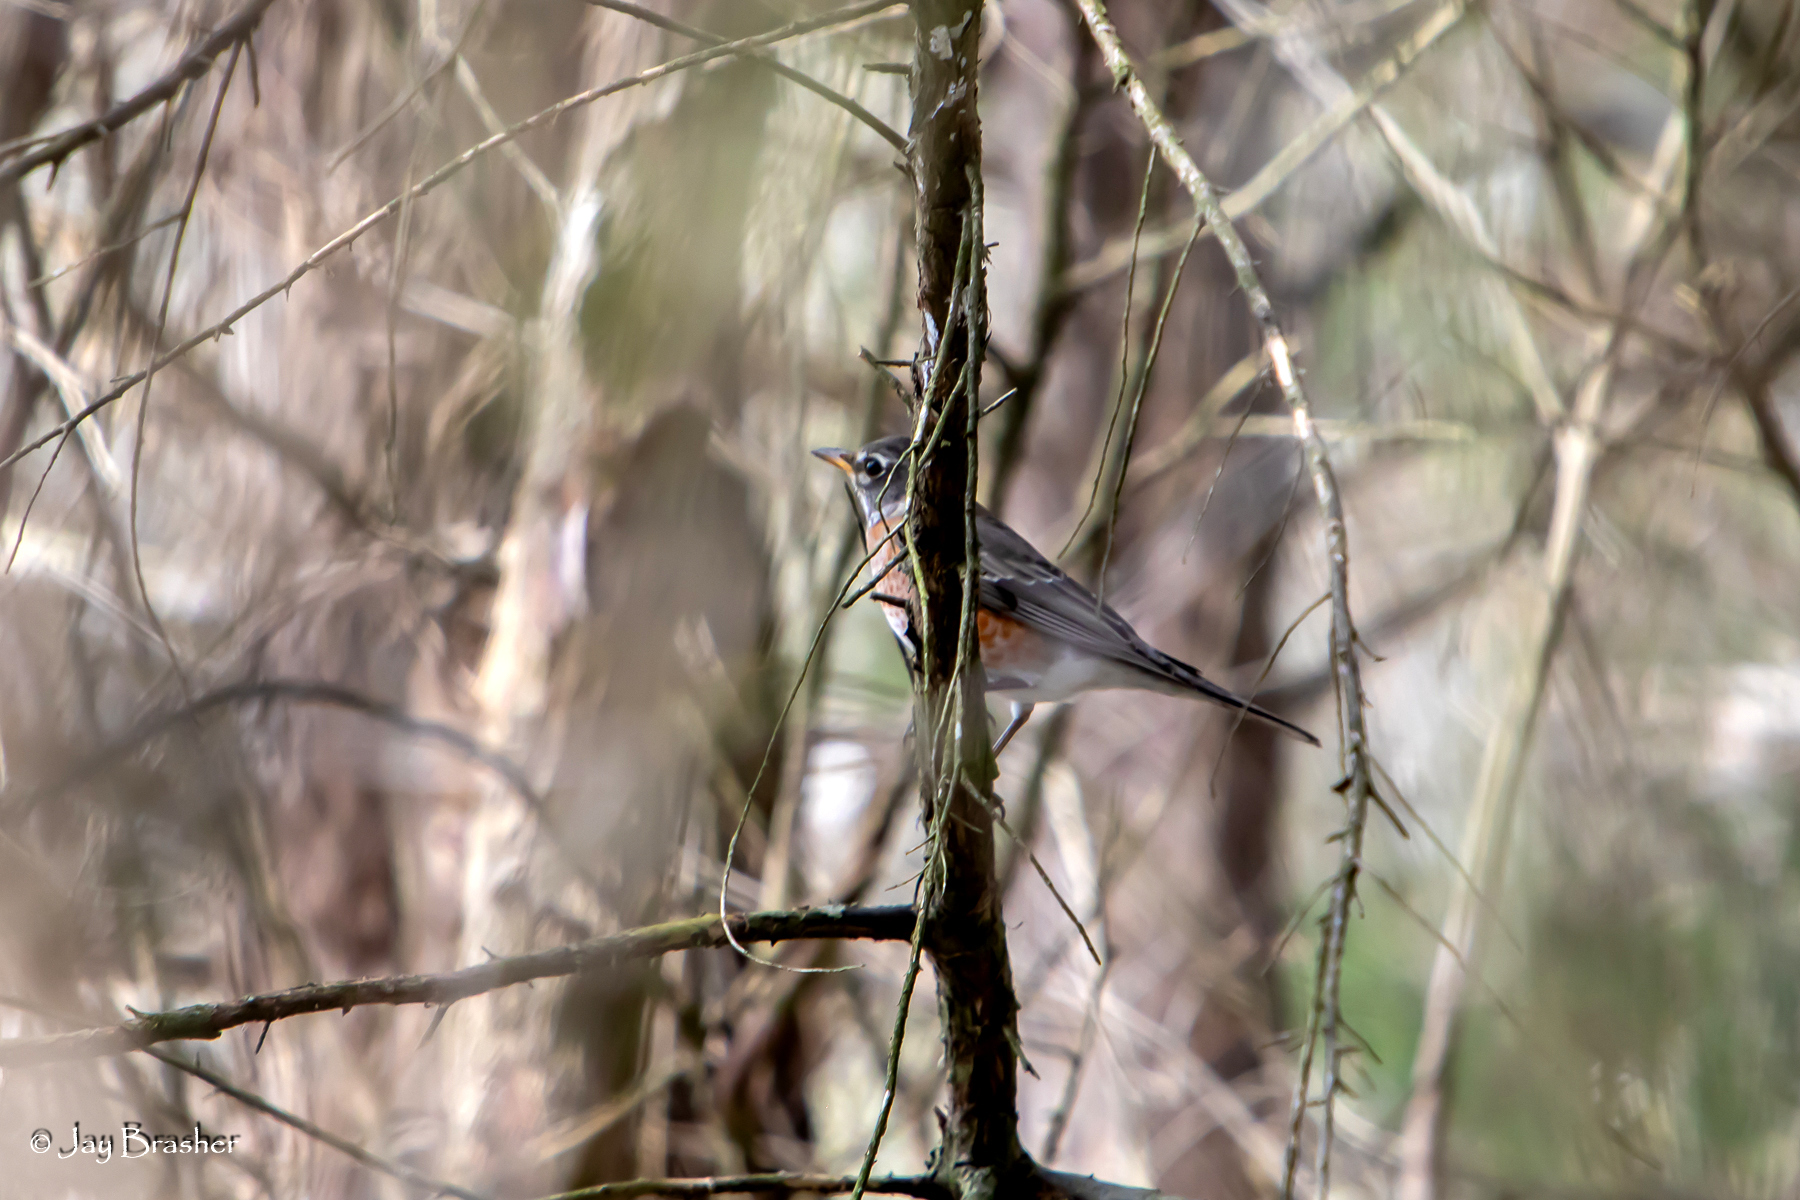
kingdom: Animalia
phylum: Chordata
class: Aves
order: Passeriformes
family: Turdidae
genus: Turdus
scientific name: Turdus migratorius
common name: American robin
